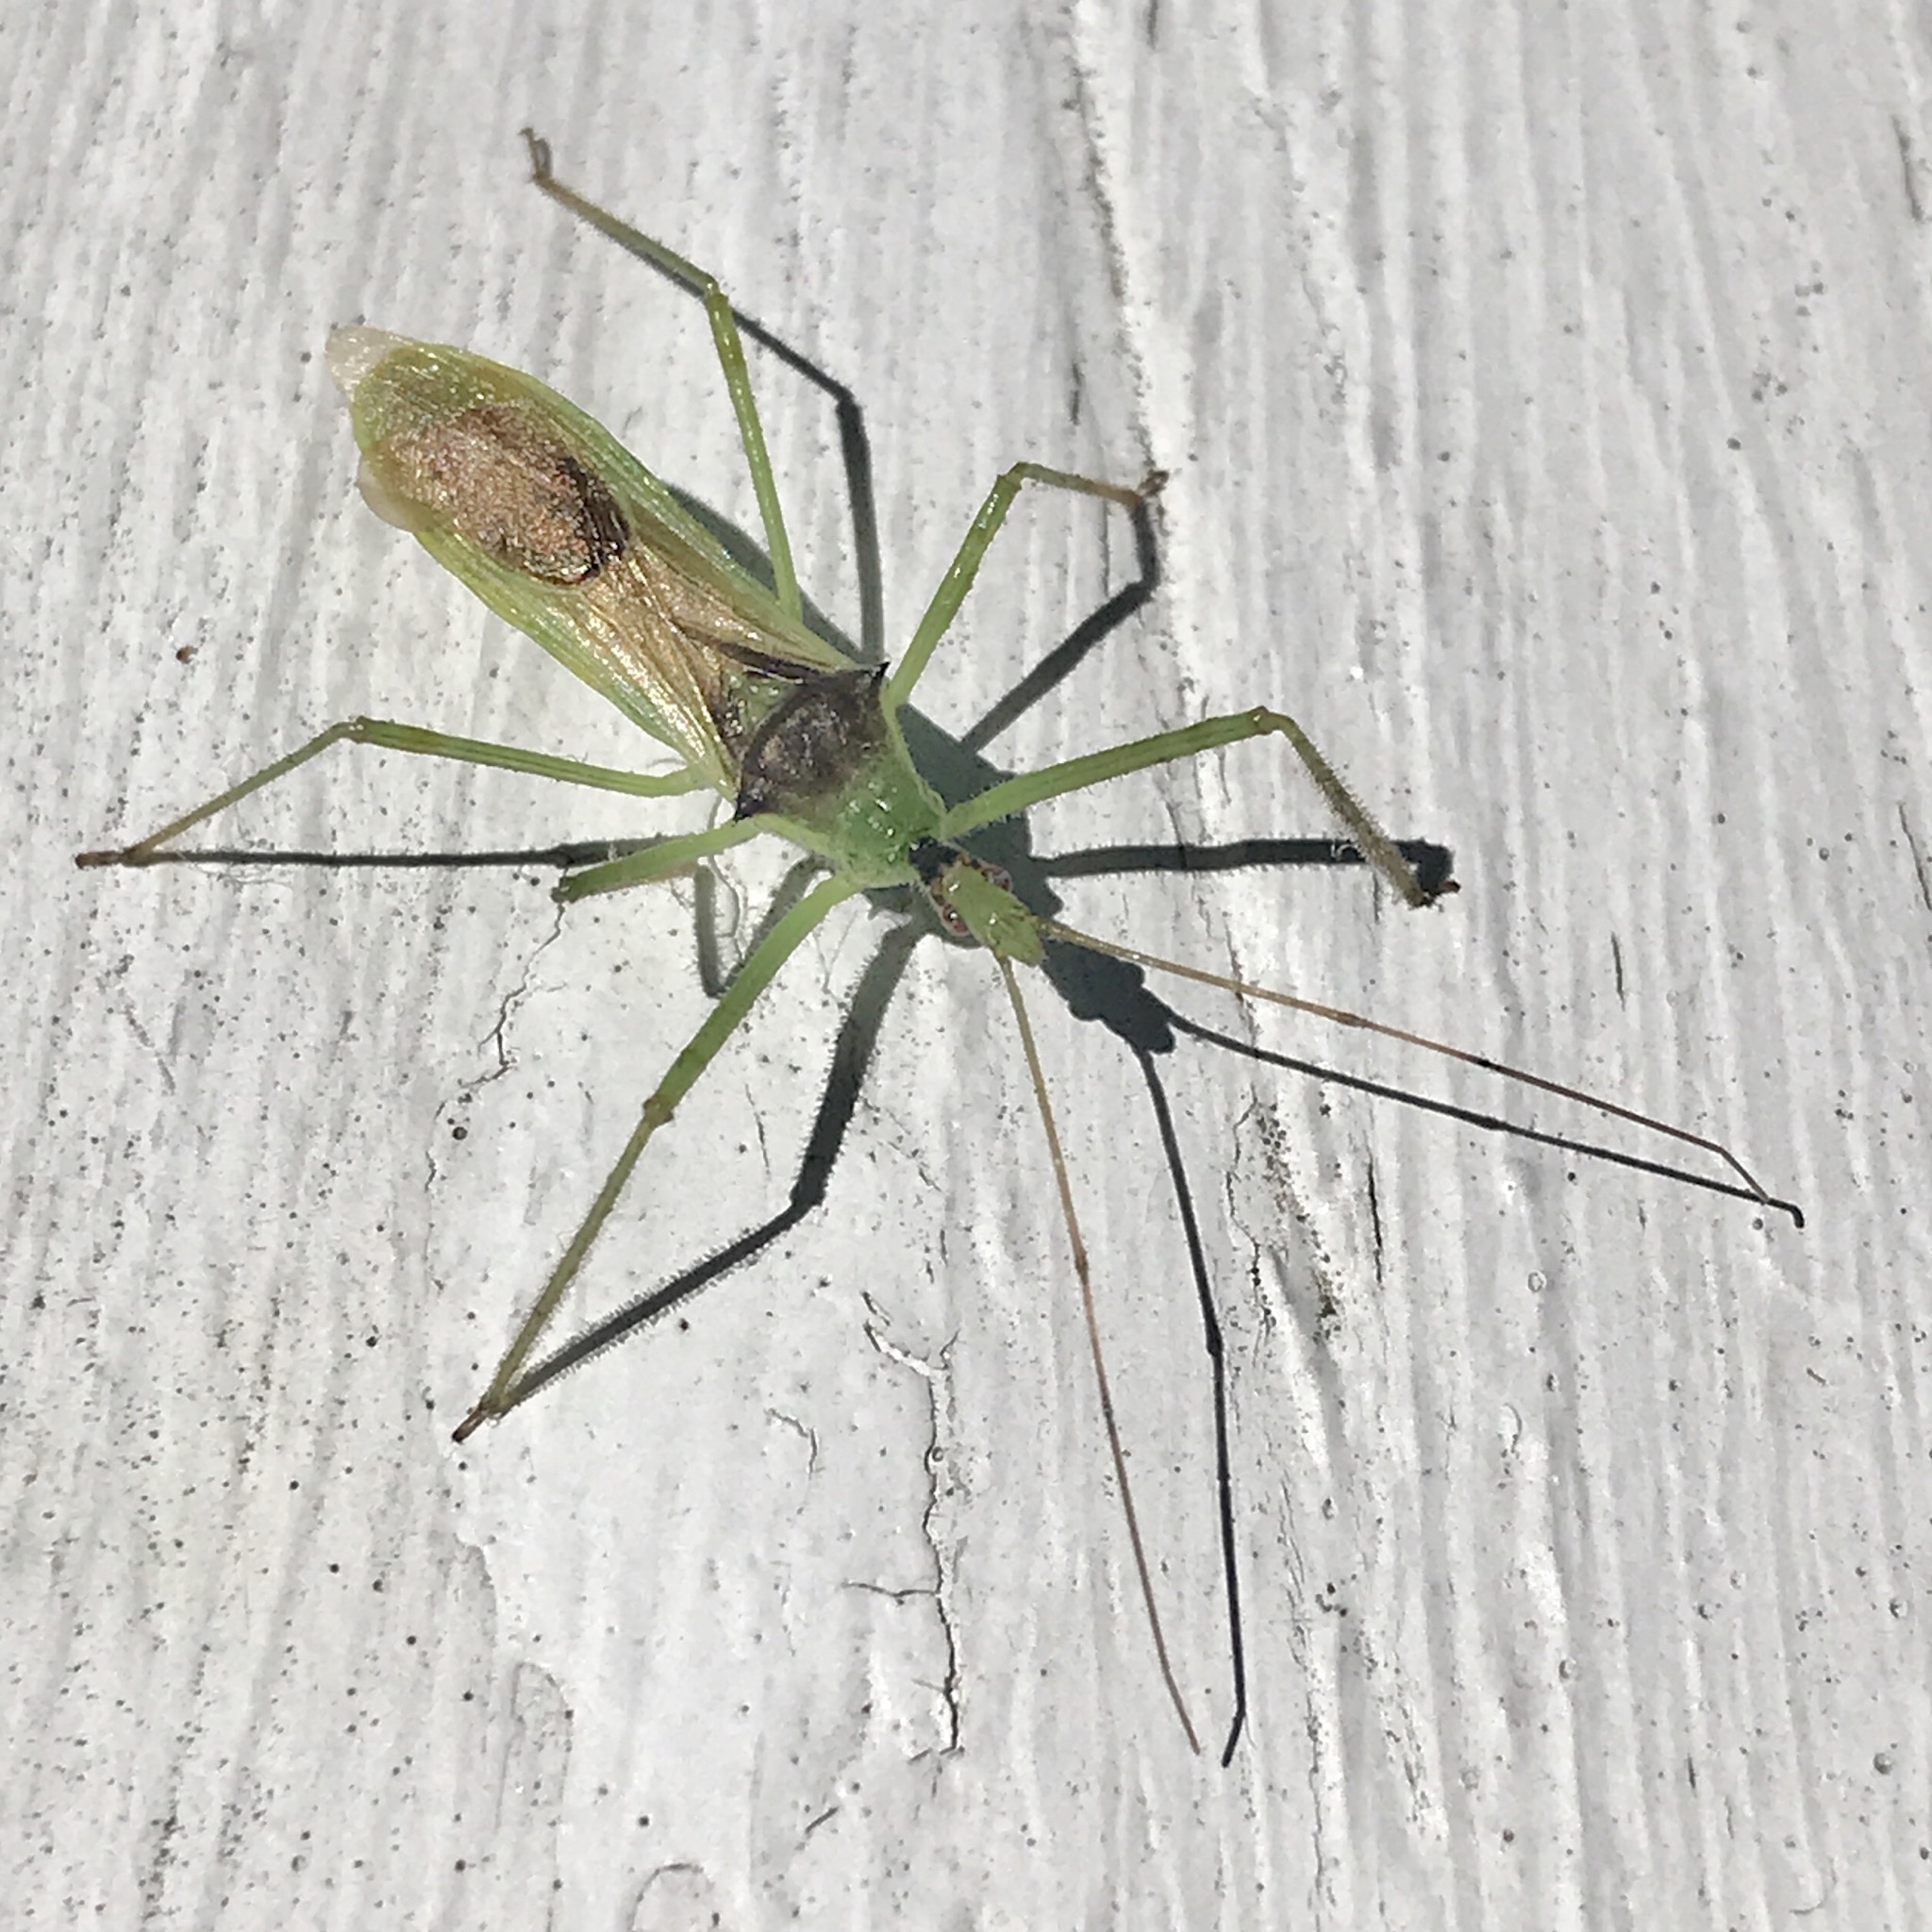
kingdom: Animalia
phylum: Arthropoda
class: Insecta
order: Hemiptera
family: Reduviidae
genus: Zelus
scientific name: Zelus luridus
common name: Pale green assassin bug
